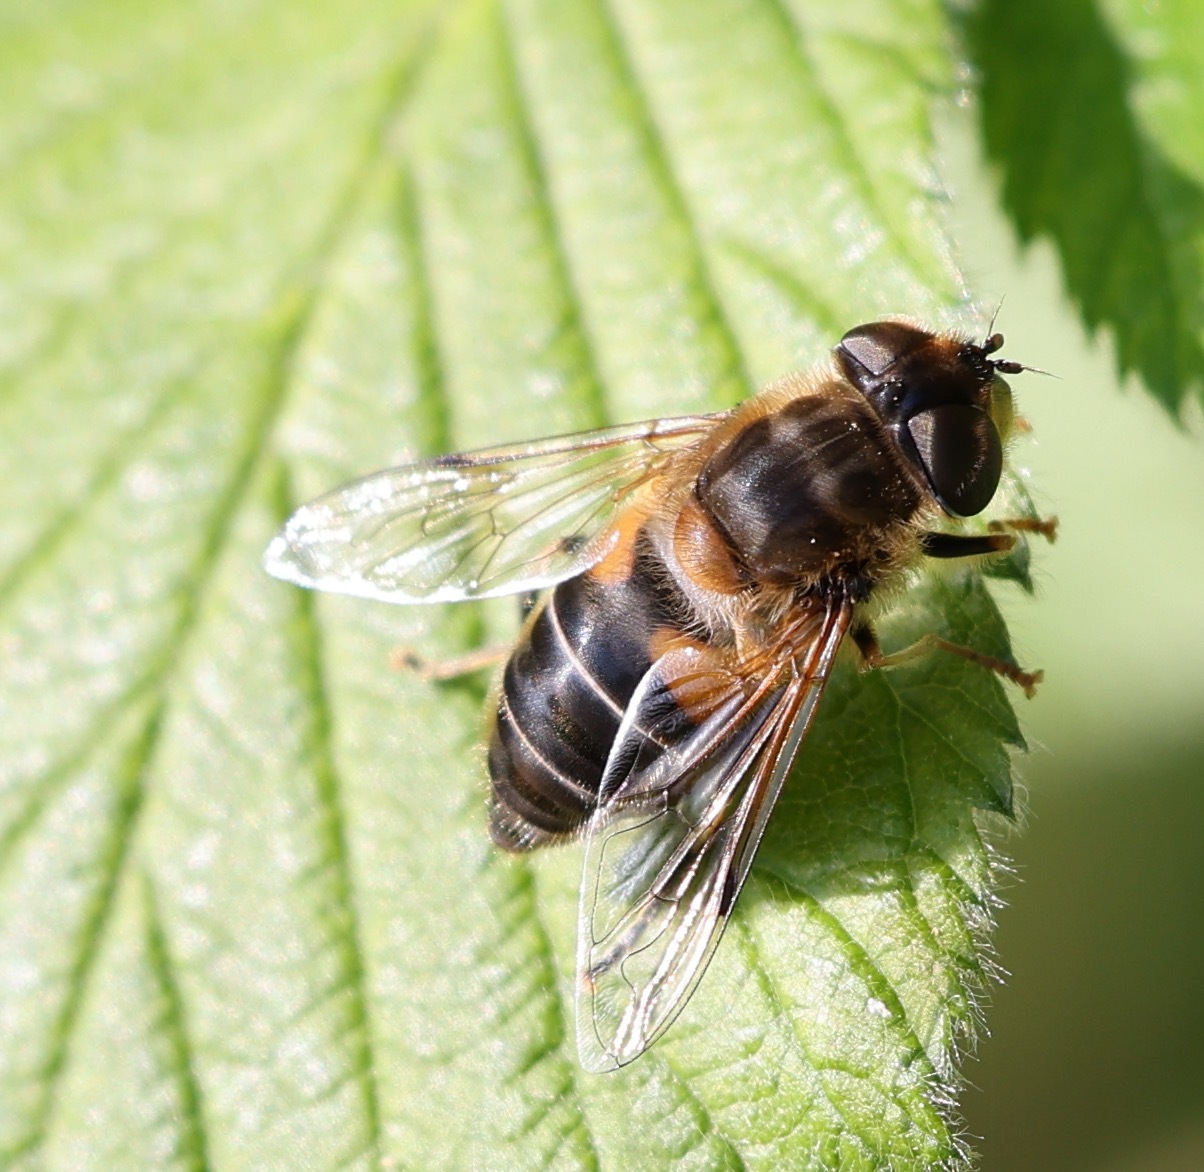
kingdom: Animalia
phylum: Arthropoda
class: Insecta
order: Diptera
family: Syrphidae
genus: Eristalis
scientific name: Eristalis pertinax
